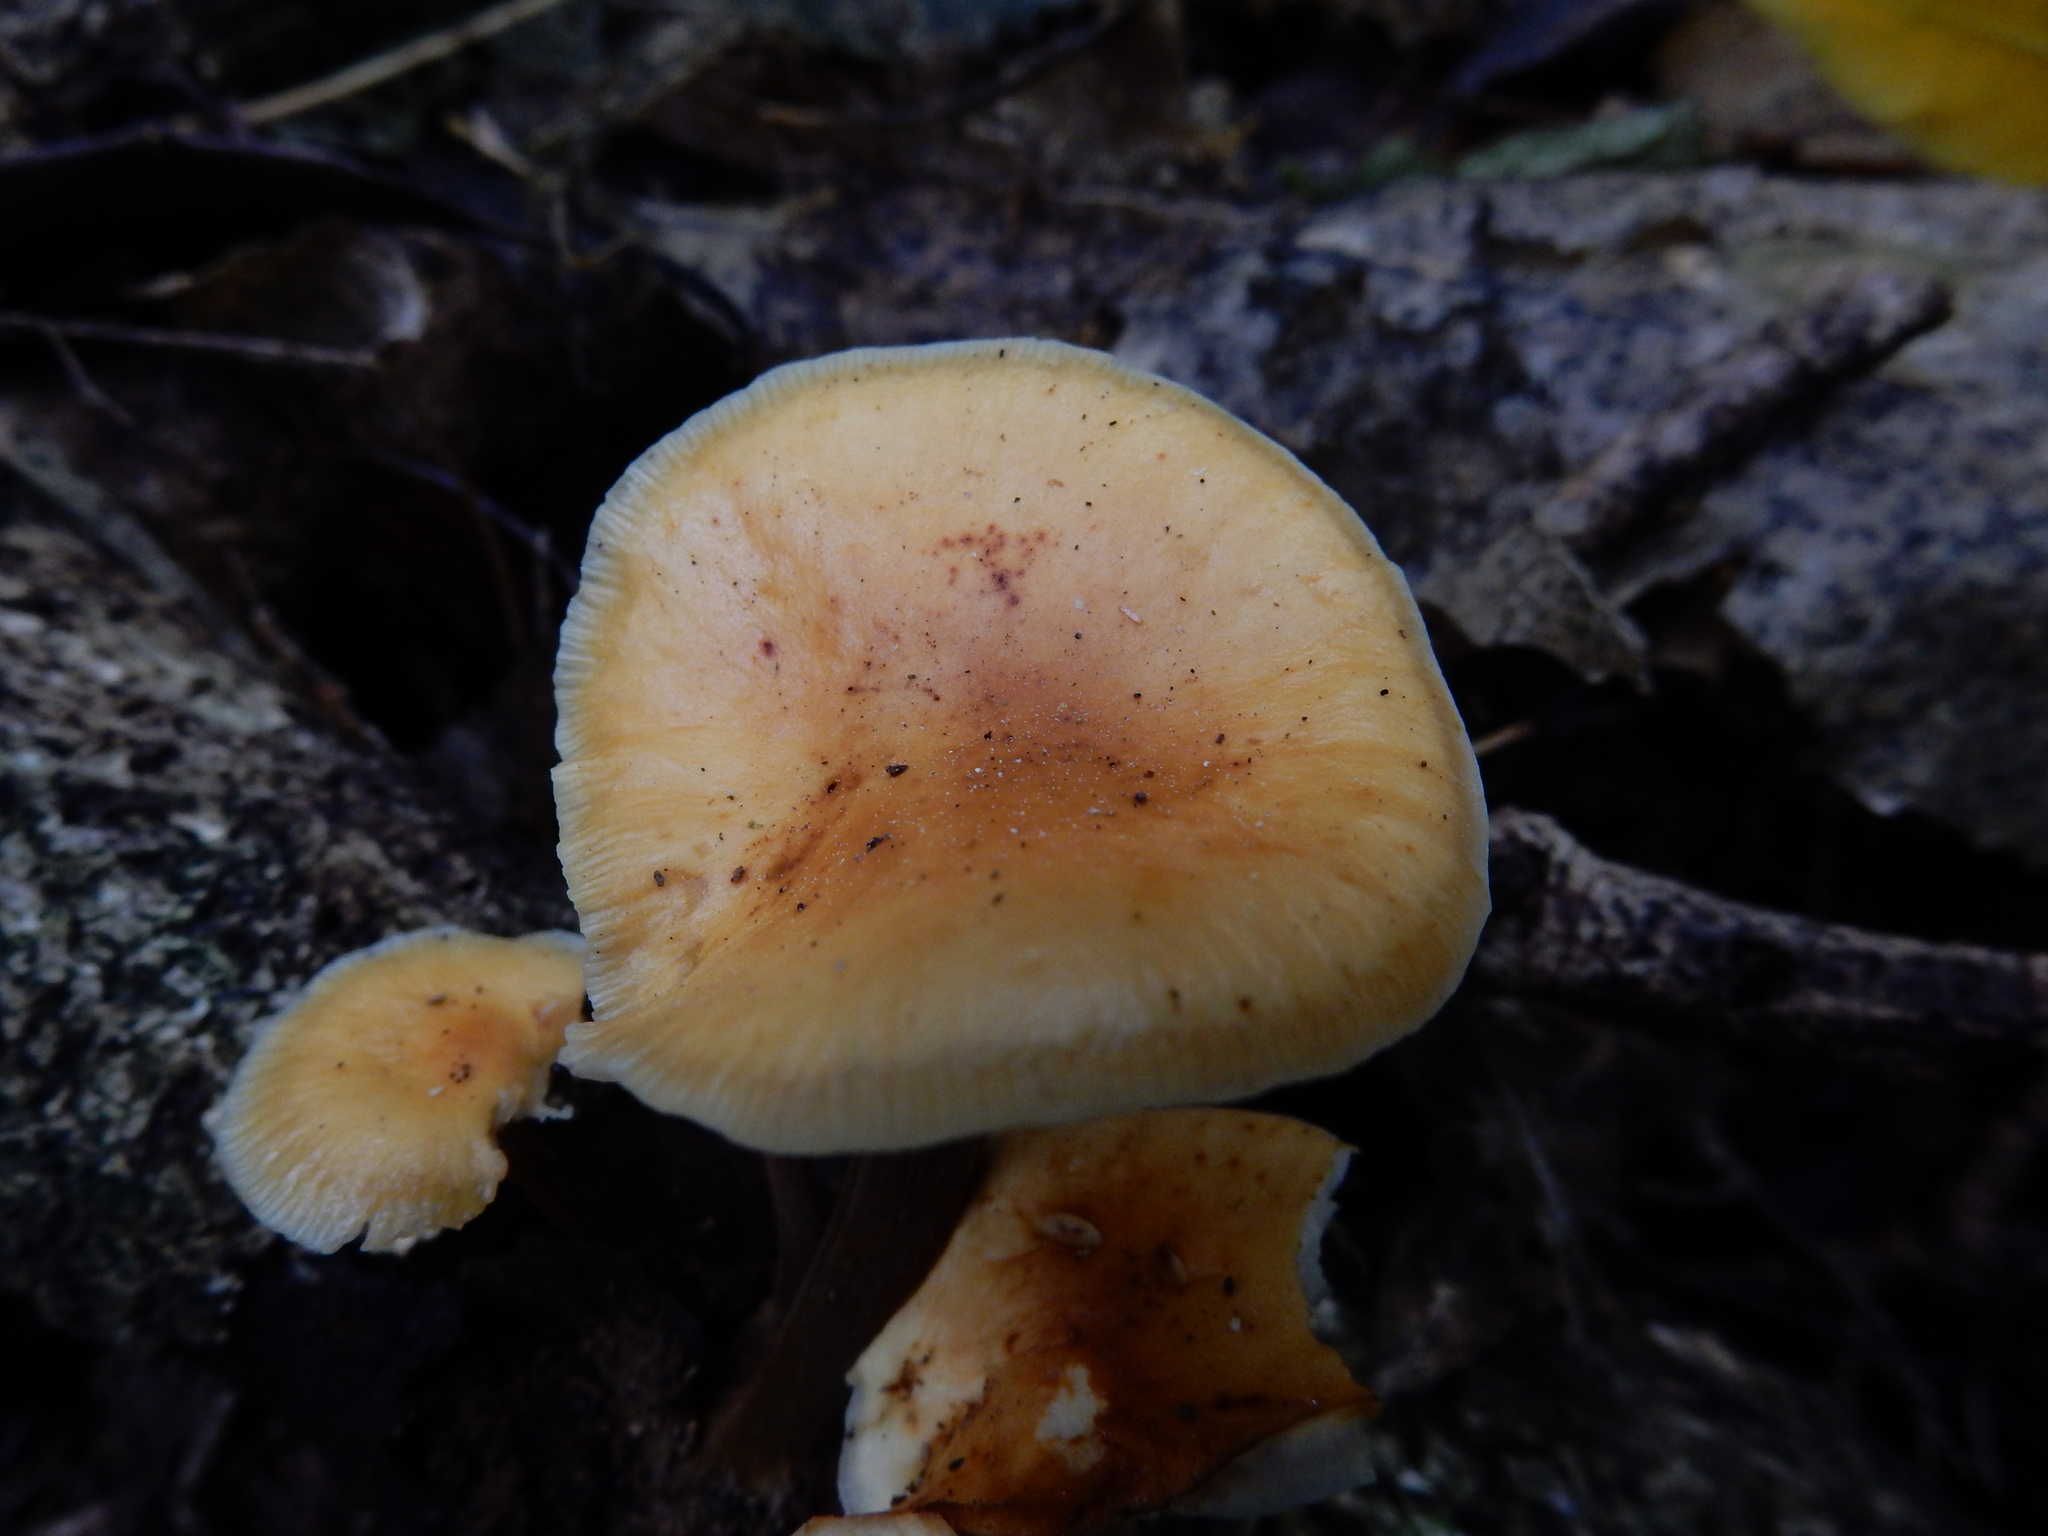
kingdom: Fungi
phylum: Basidiomycota
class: Agaricomycetes
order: Agaricales
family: Physalacriaceae
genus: Flammulina
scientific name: Flammulina velutipes
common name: Velvet shank
